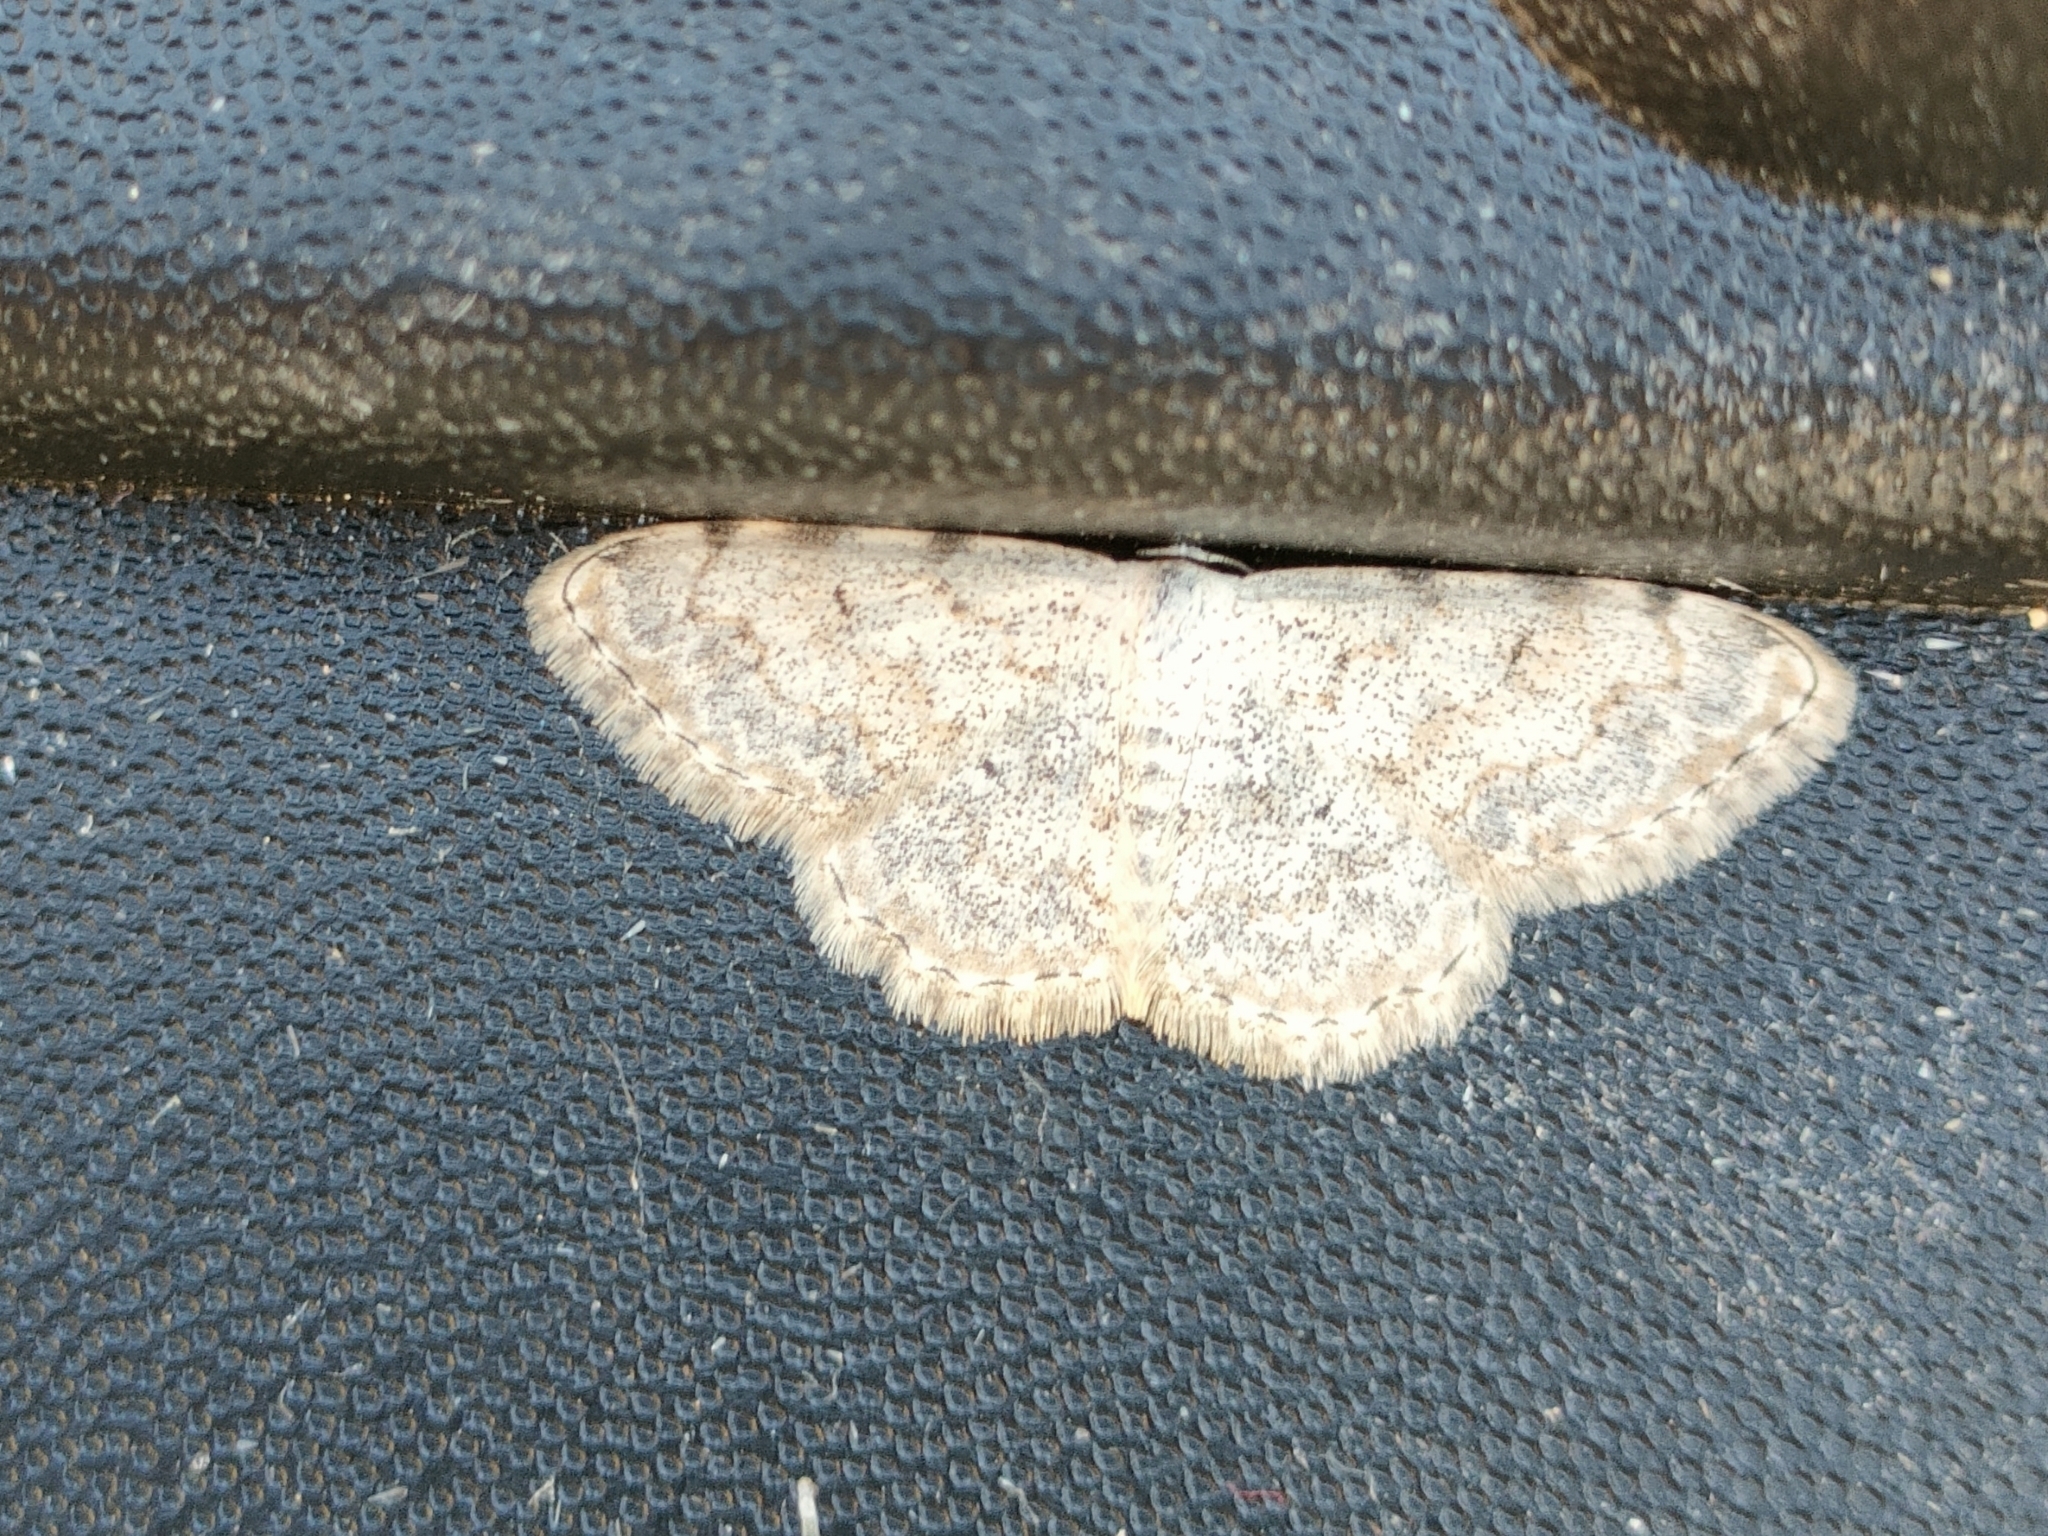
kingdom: Animalia
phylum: Arthropoda
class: Insecta
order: Lepidoptera
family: Geometridae
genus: Scopula
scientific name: Scopula submutata
